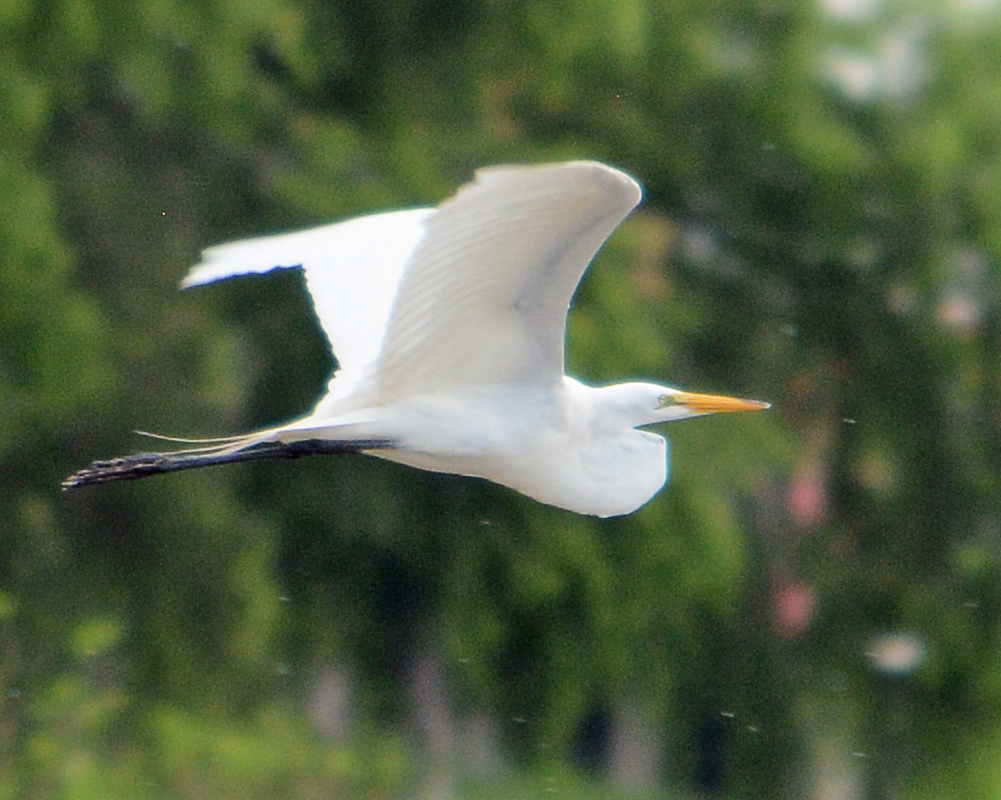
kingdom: Animalia
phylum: Chordata
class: Aves
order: Pelecaniformes
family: Ardeidae
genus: Ardea
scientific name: Ardea alba
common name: Great egret
